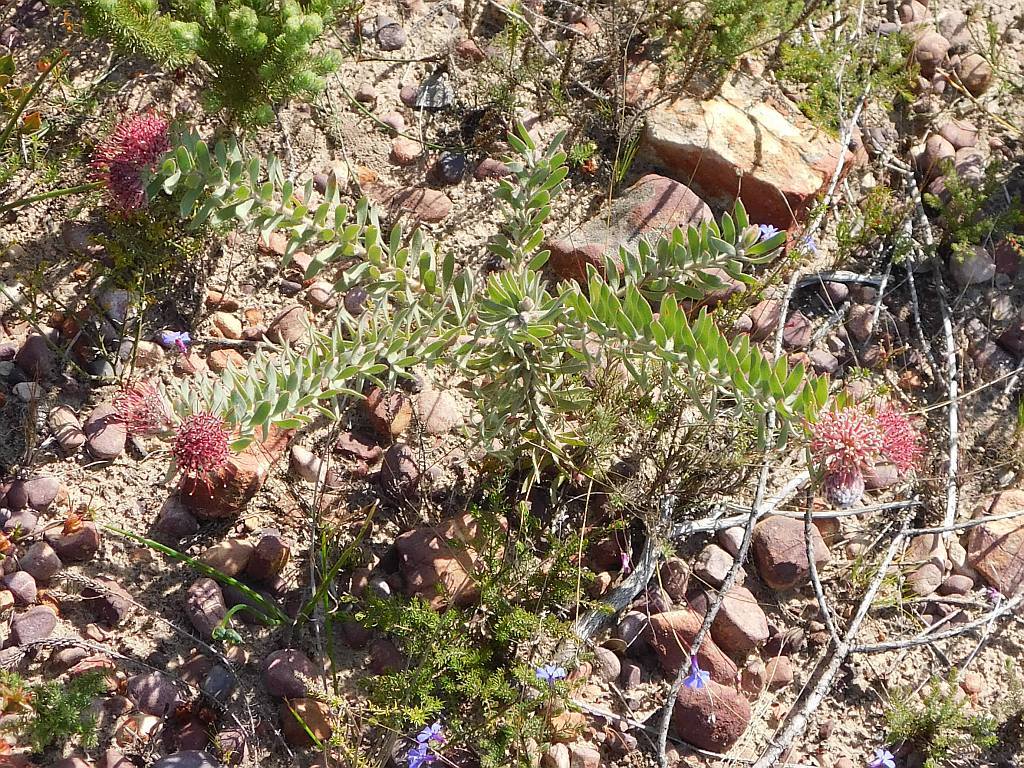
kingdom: Plantae
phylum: Tracheophyta
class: Magnoliopsida
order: Proteales
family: Proteaceae
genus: Leucospermum
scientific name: Leucospermum calligerum
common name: Arid pincushion
